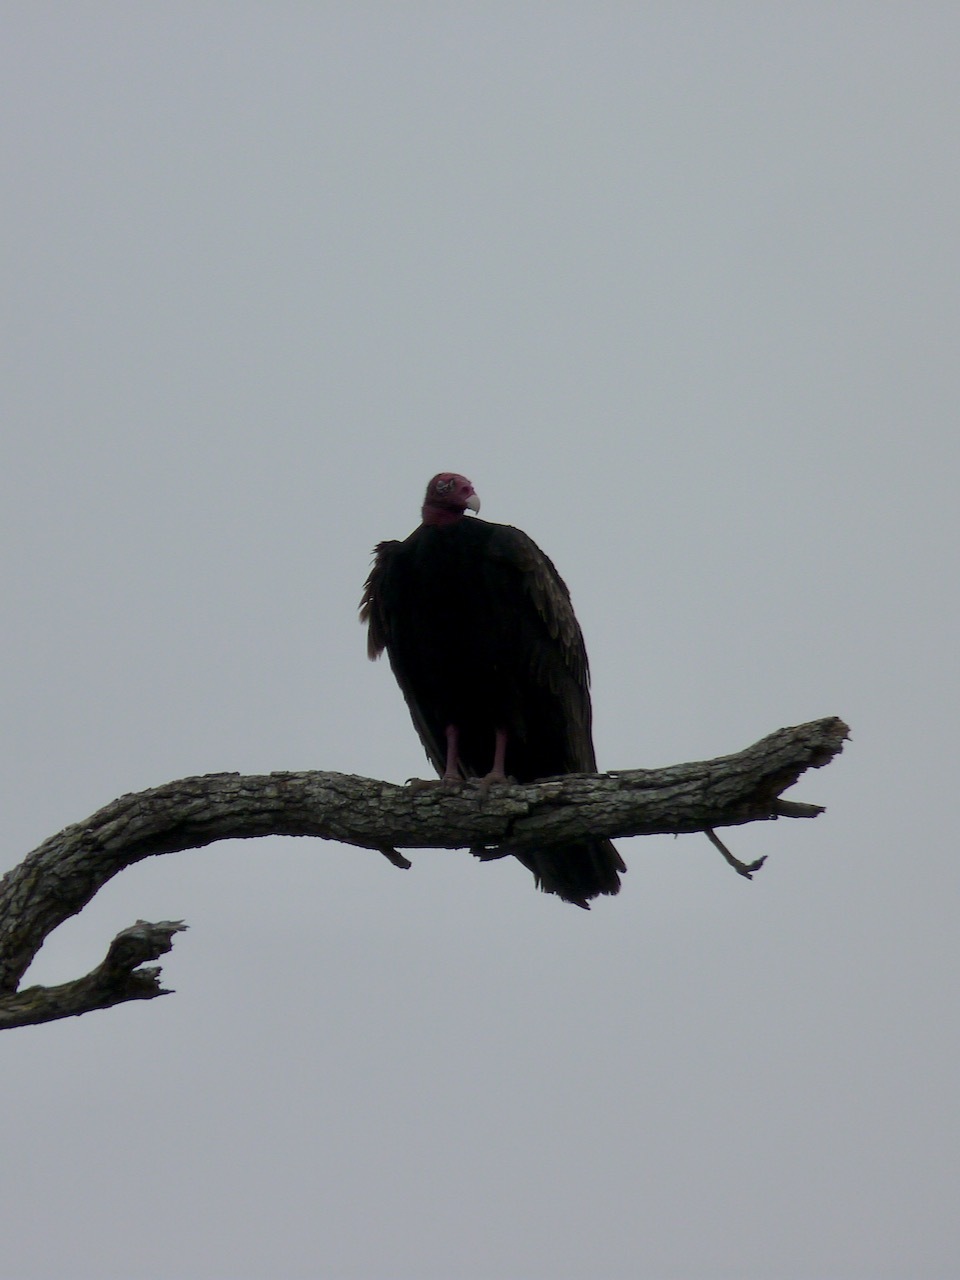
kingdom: Animalia
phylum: Chordata
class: Aves
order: Accipitriformes
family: Cathartidae
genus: Cathartes
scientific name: Cathartes aura
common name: Turkey vulture
